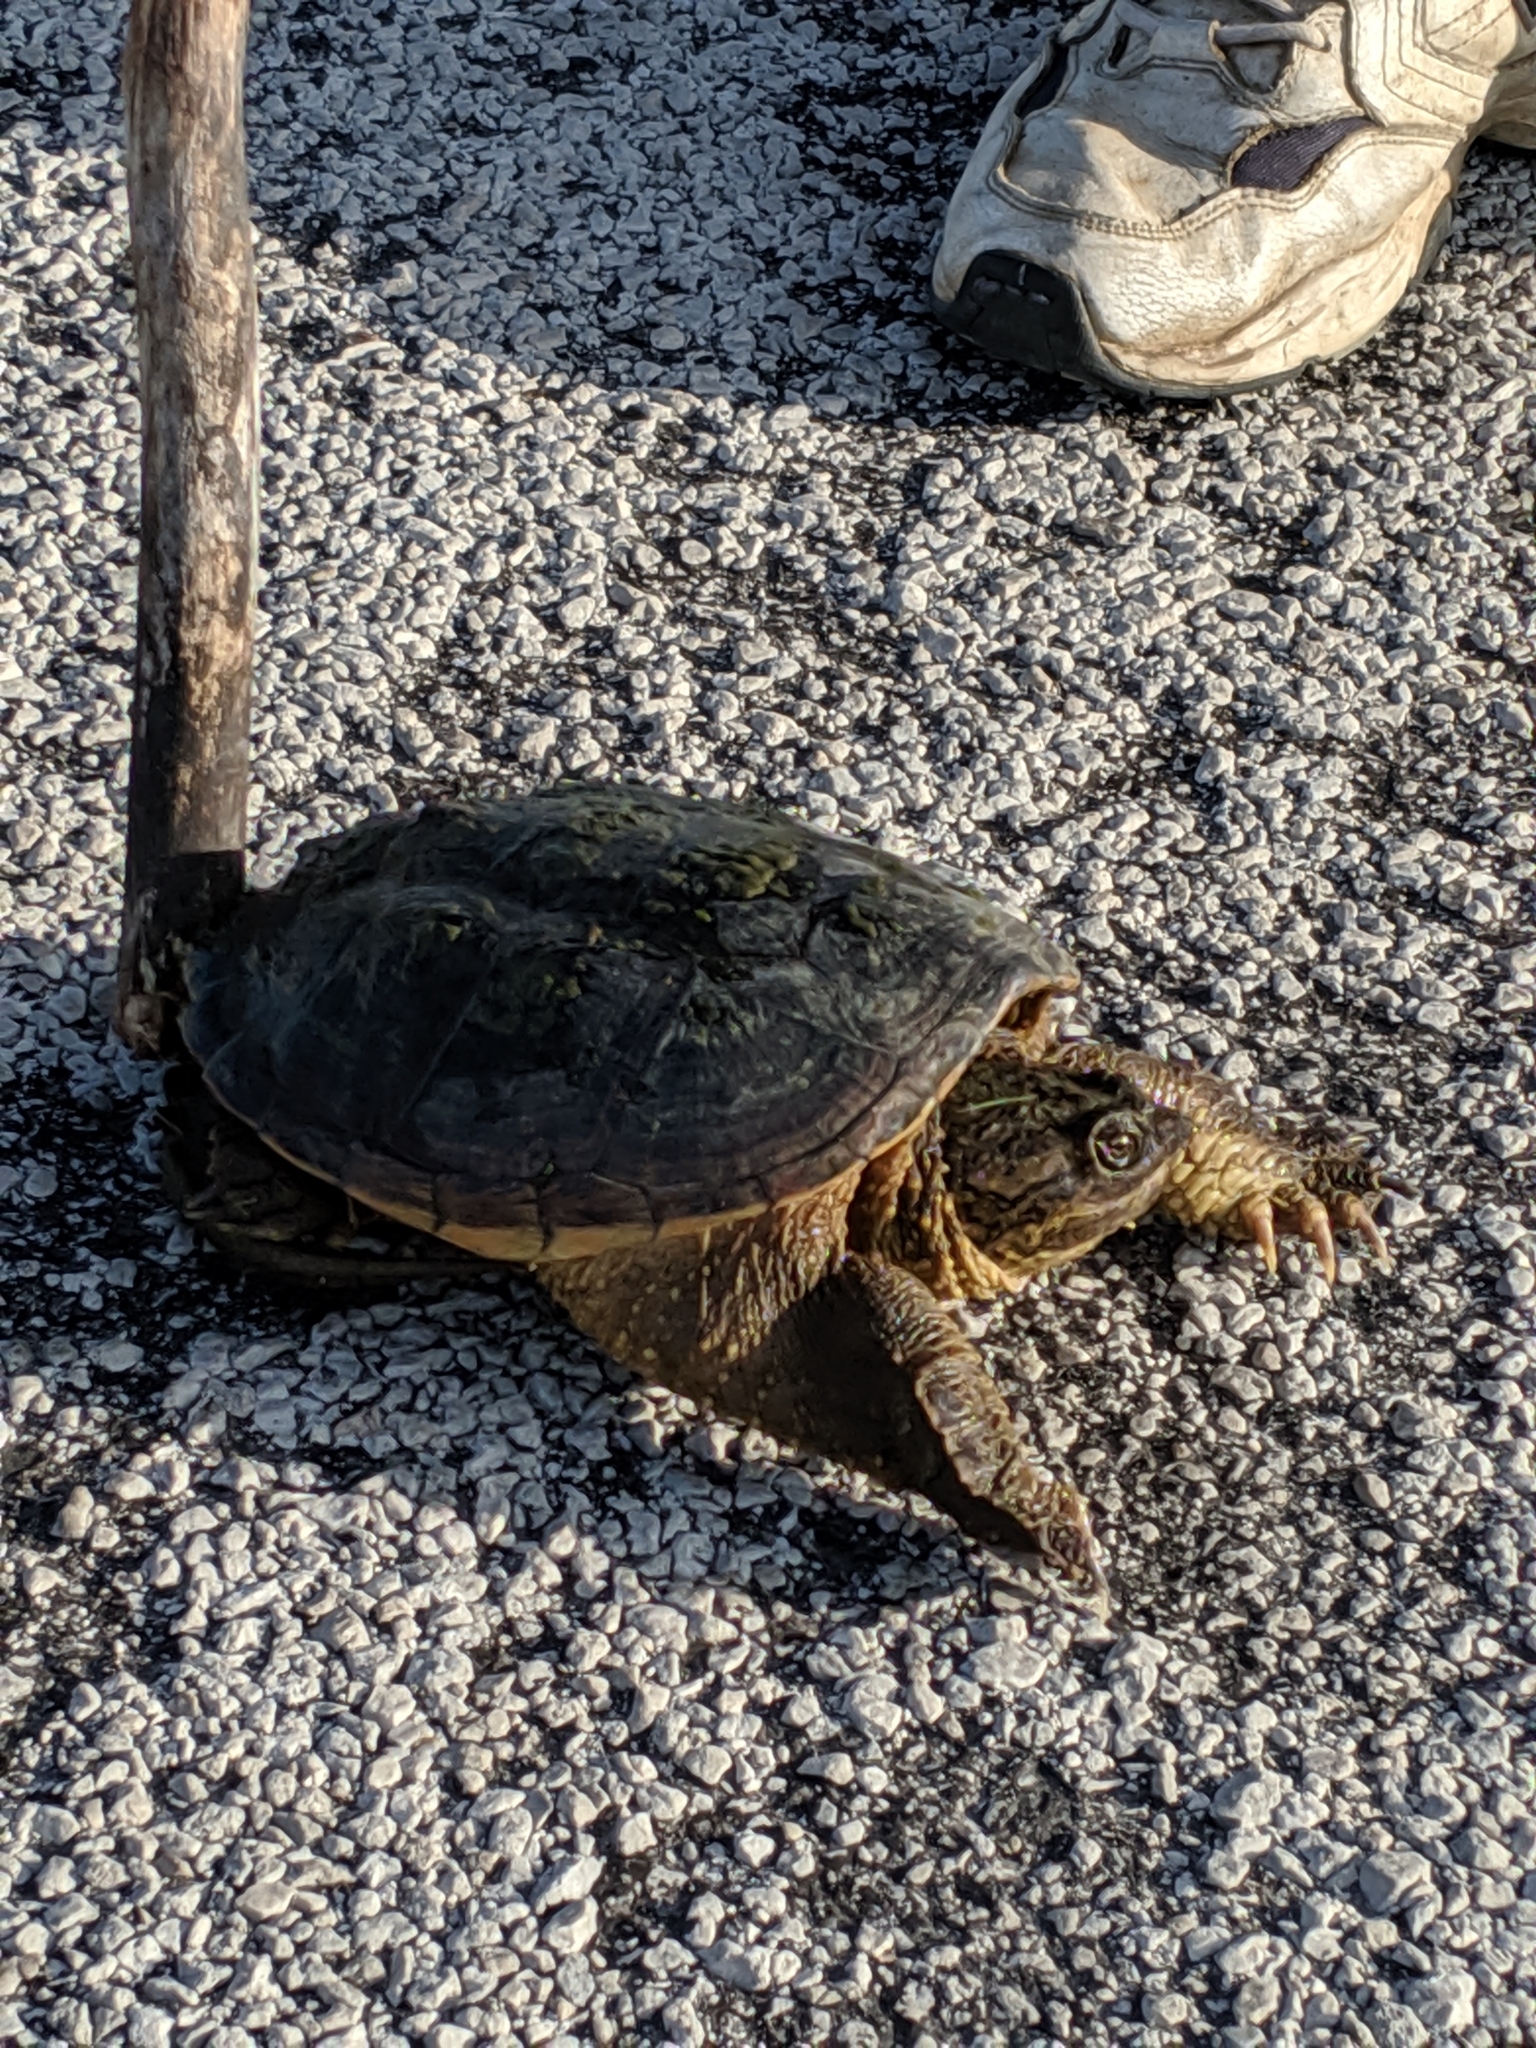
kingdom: Animalia
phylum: Chordata
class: Testudines
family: Chelydridae
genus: Chelydra
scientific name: Chelydra serpentina
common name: Common snapping turtle
